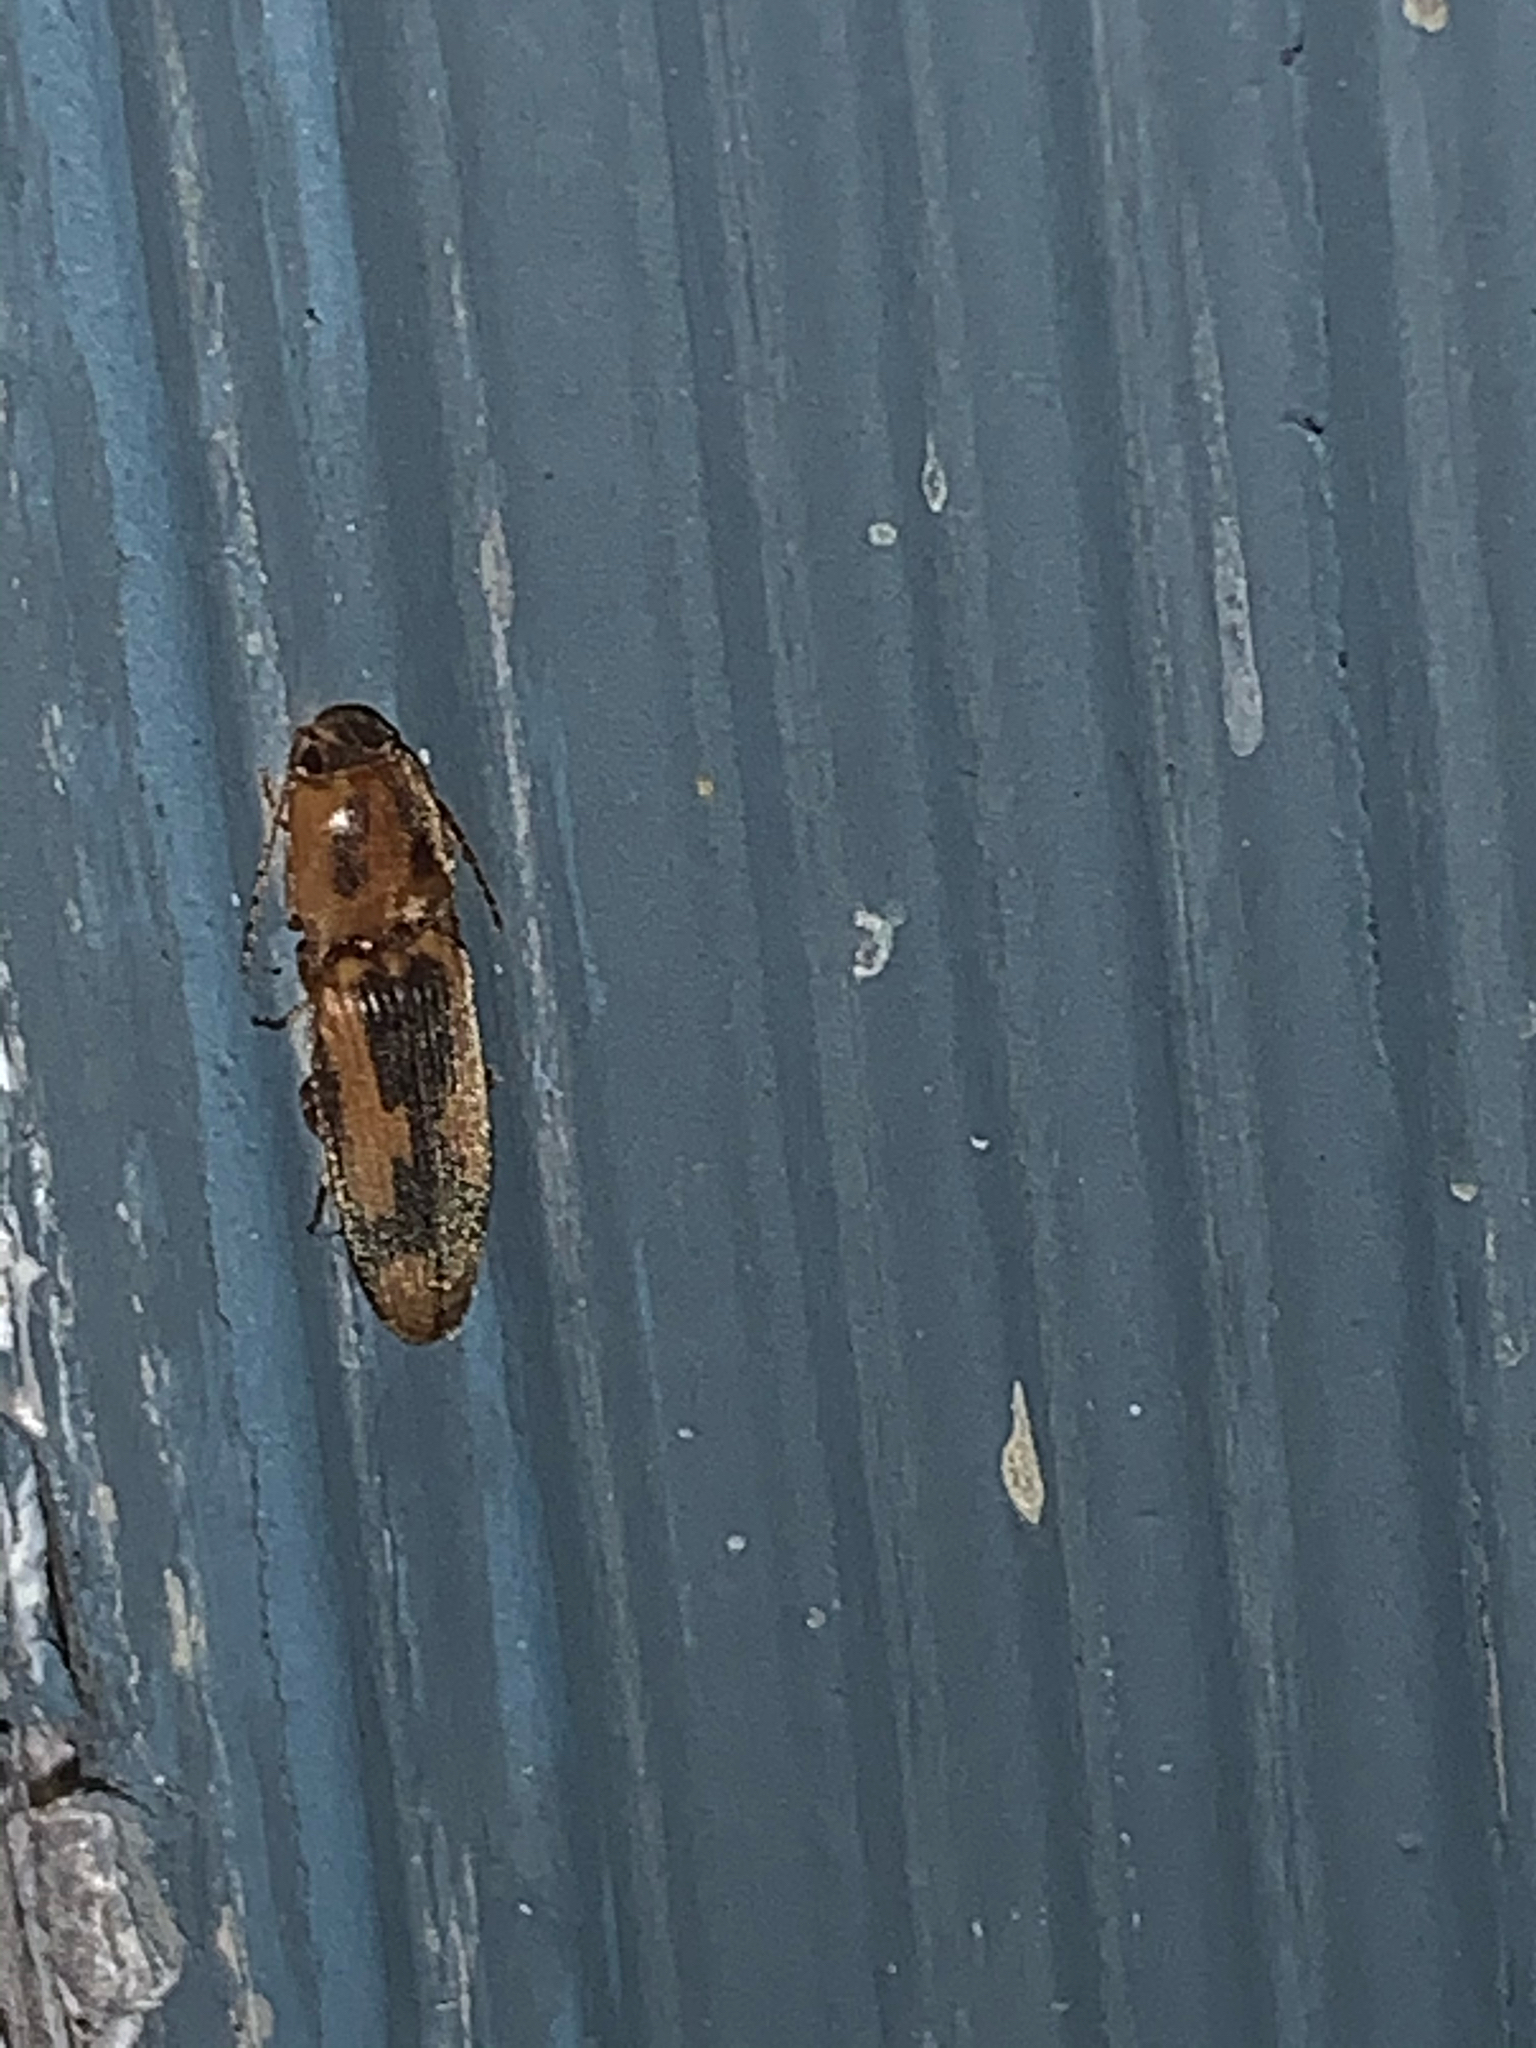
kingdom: Animalia
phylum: Arthropoda
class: Insecta
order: Coleoptera
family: Elateridae
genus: Monocrepidius
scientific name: Monocrepidius
